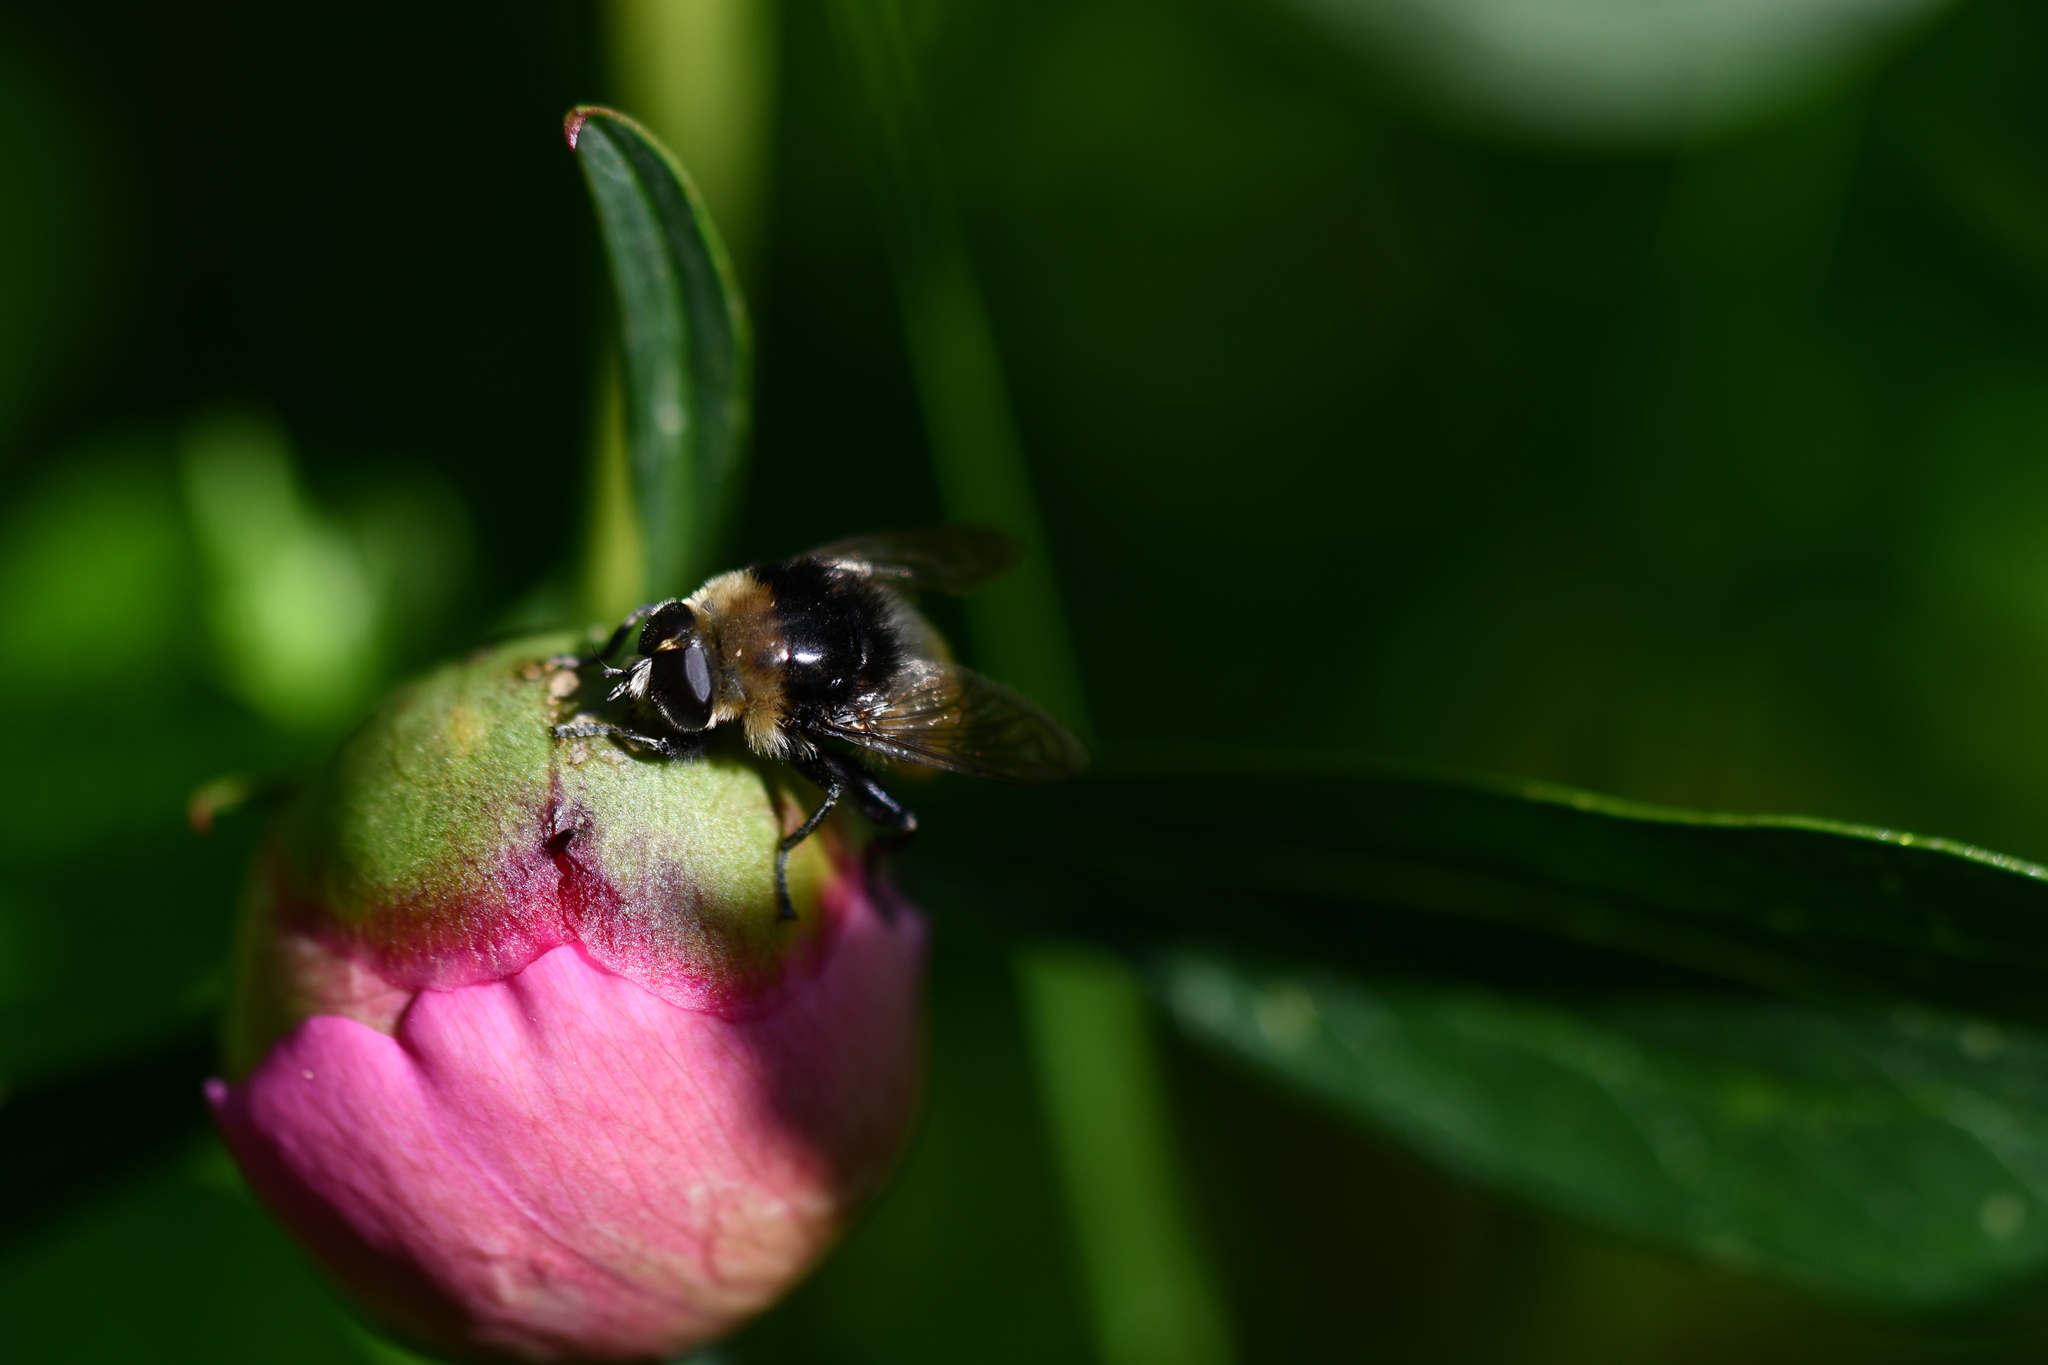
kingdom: Animalia
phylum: Arthropoda
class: Insecta
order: Diptera
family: Syrphidae
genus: Merodon
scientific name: Merodon equestris
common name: Greater bulb-fly
